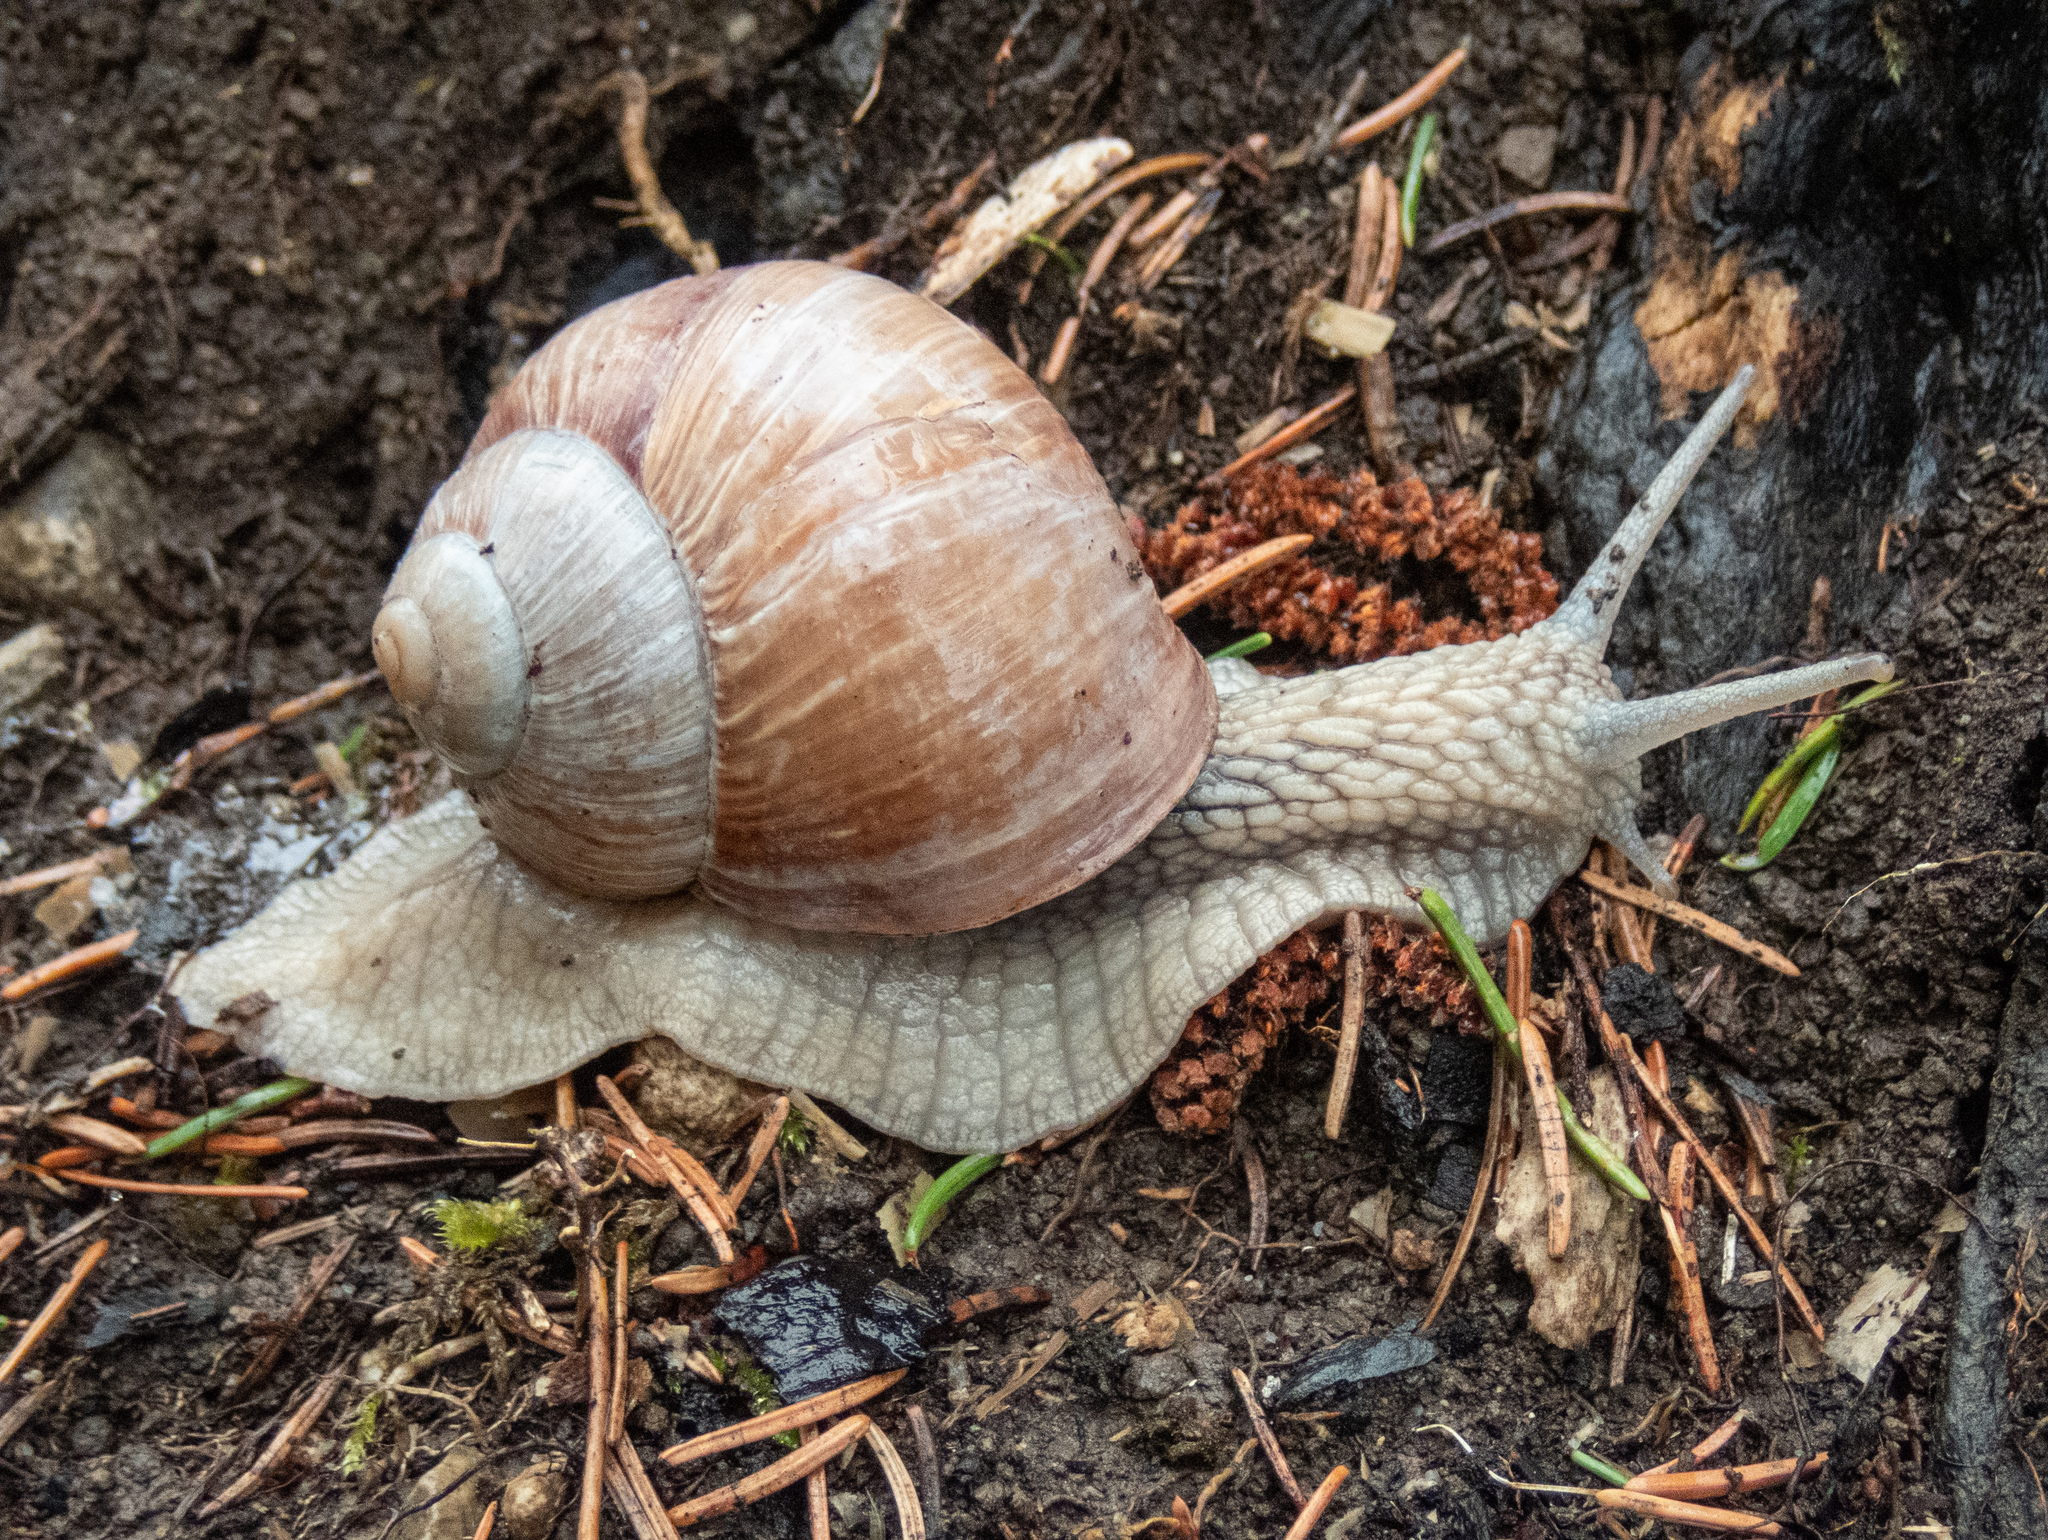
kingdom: Animalia
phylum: Mollusca
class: Gastropoda
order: Stylommatophora
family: Helicidae
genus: Helix
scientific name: Helix pomatia
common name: Roman snail
